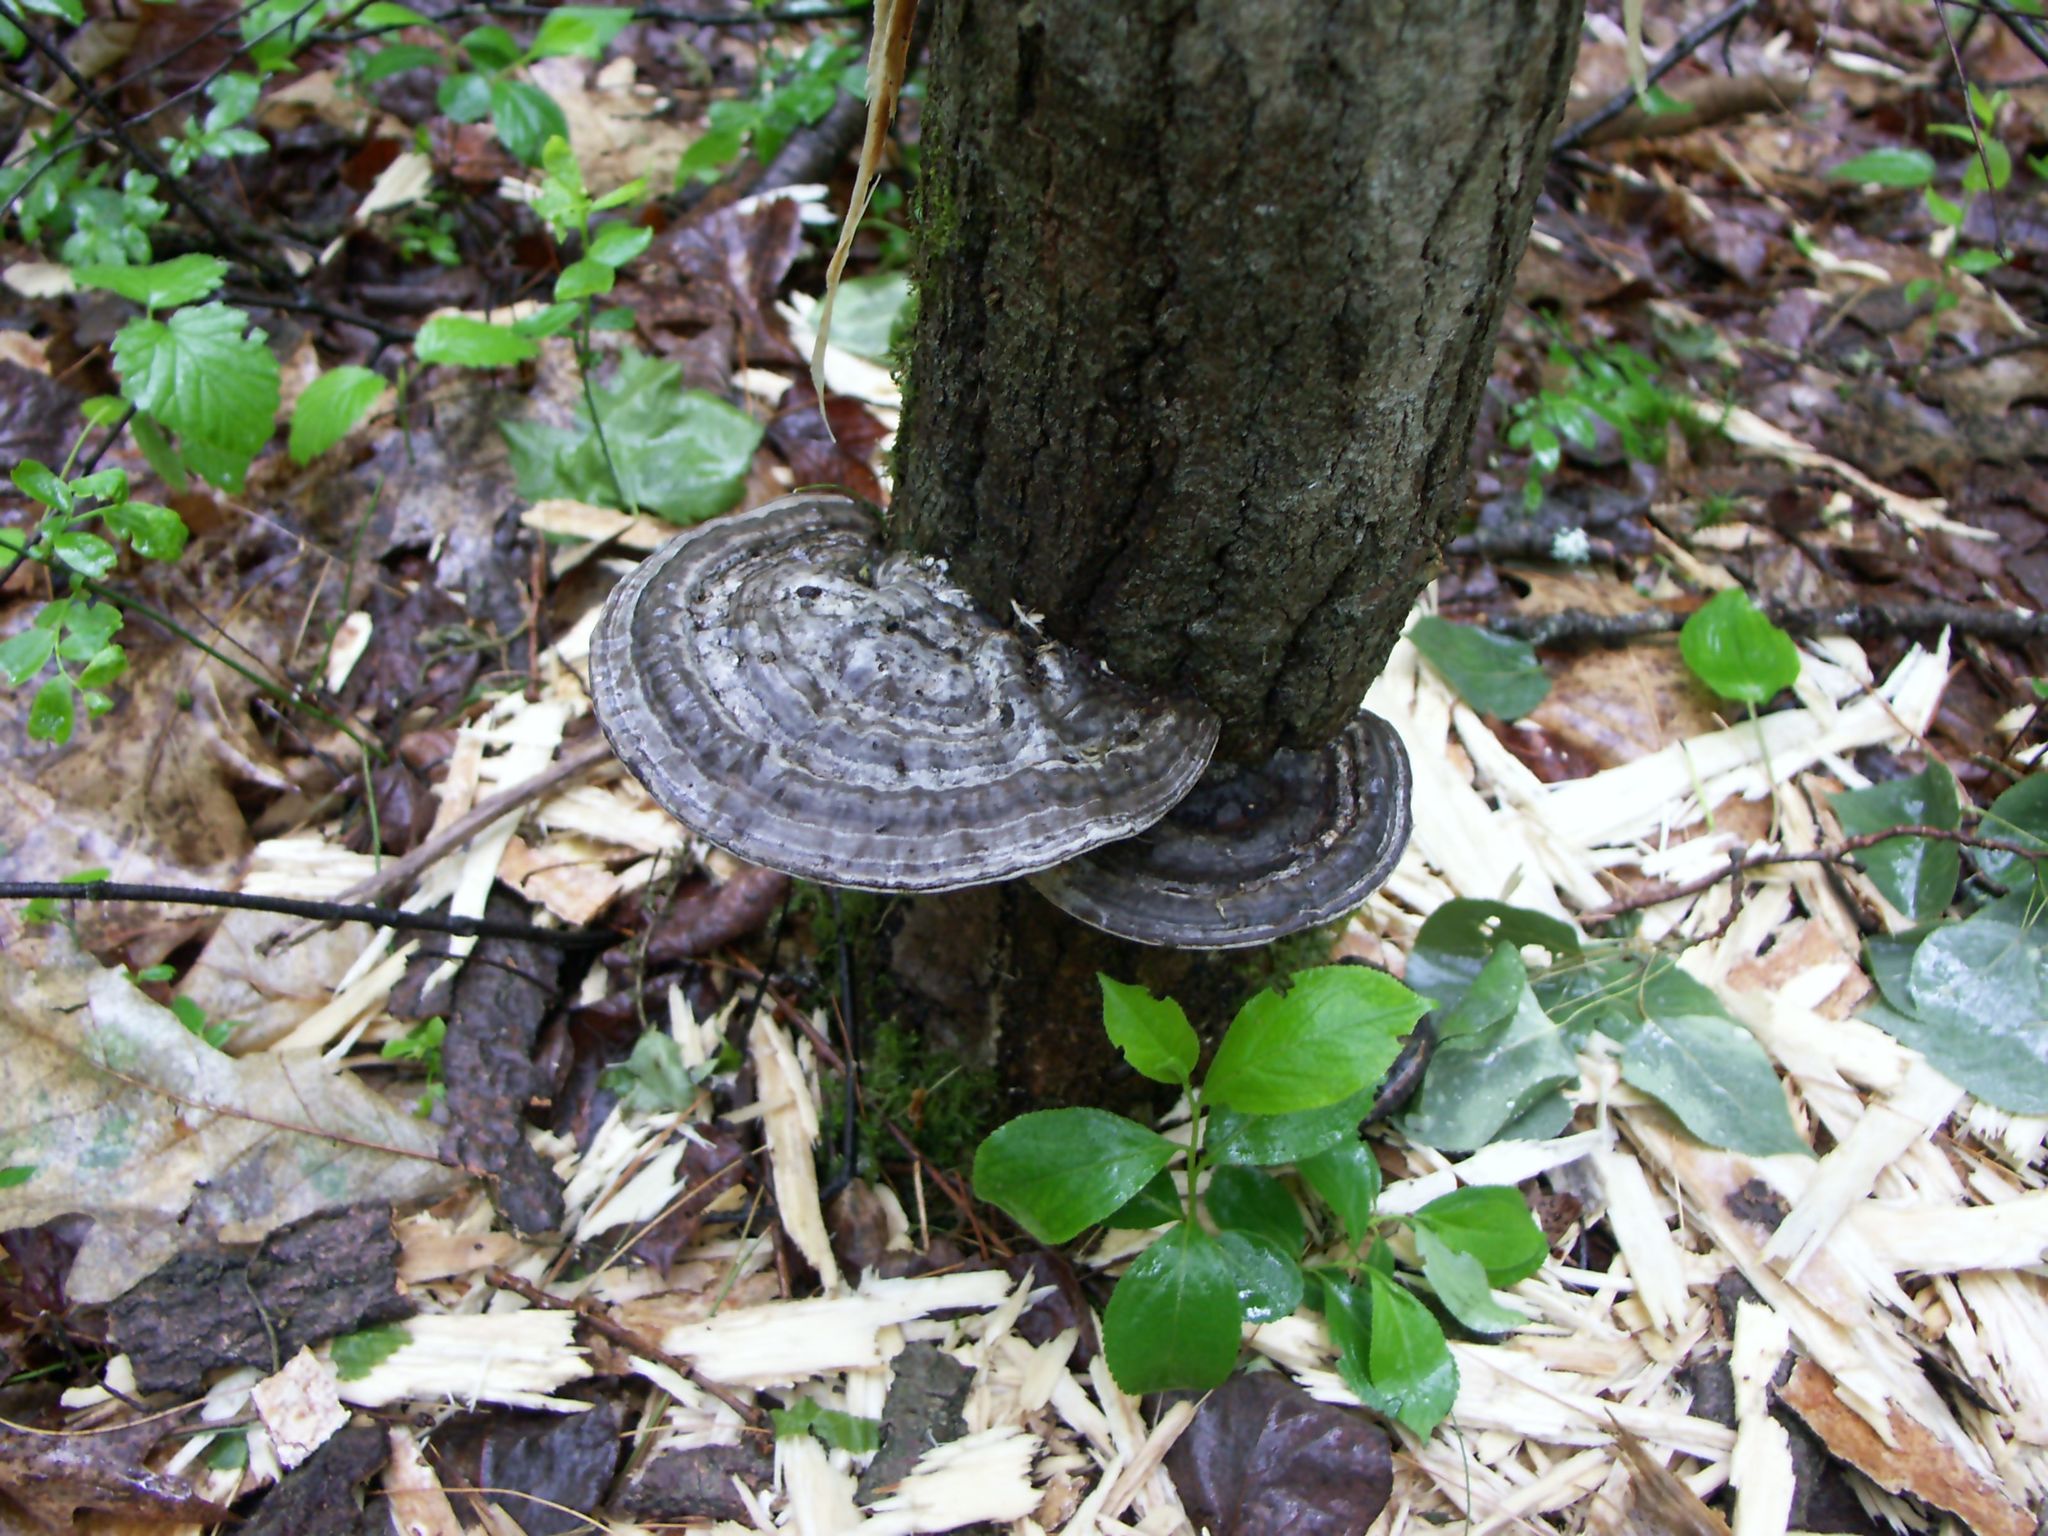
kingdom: Fungi
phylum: Basidiomycota
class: Agaricomycetes
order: Polyporales
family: Polyporaceae
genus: Ganoderma
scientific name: Ganoderma applanatum
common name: Artist's bracket
